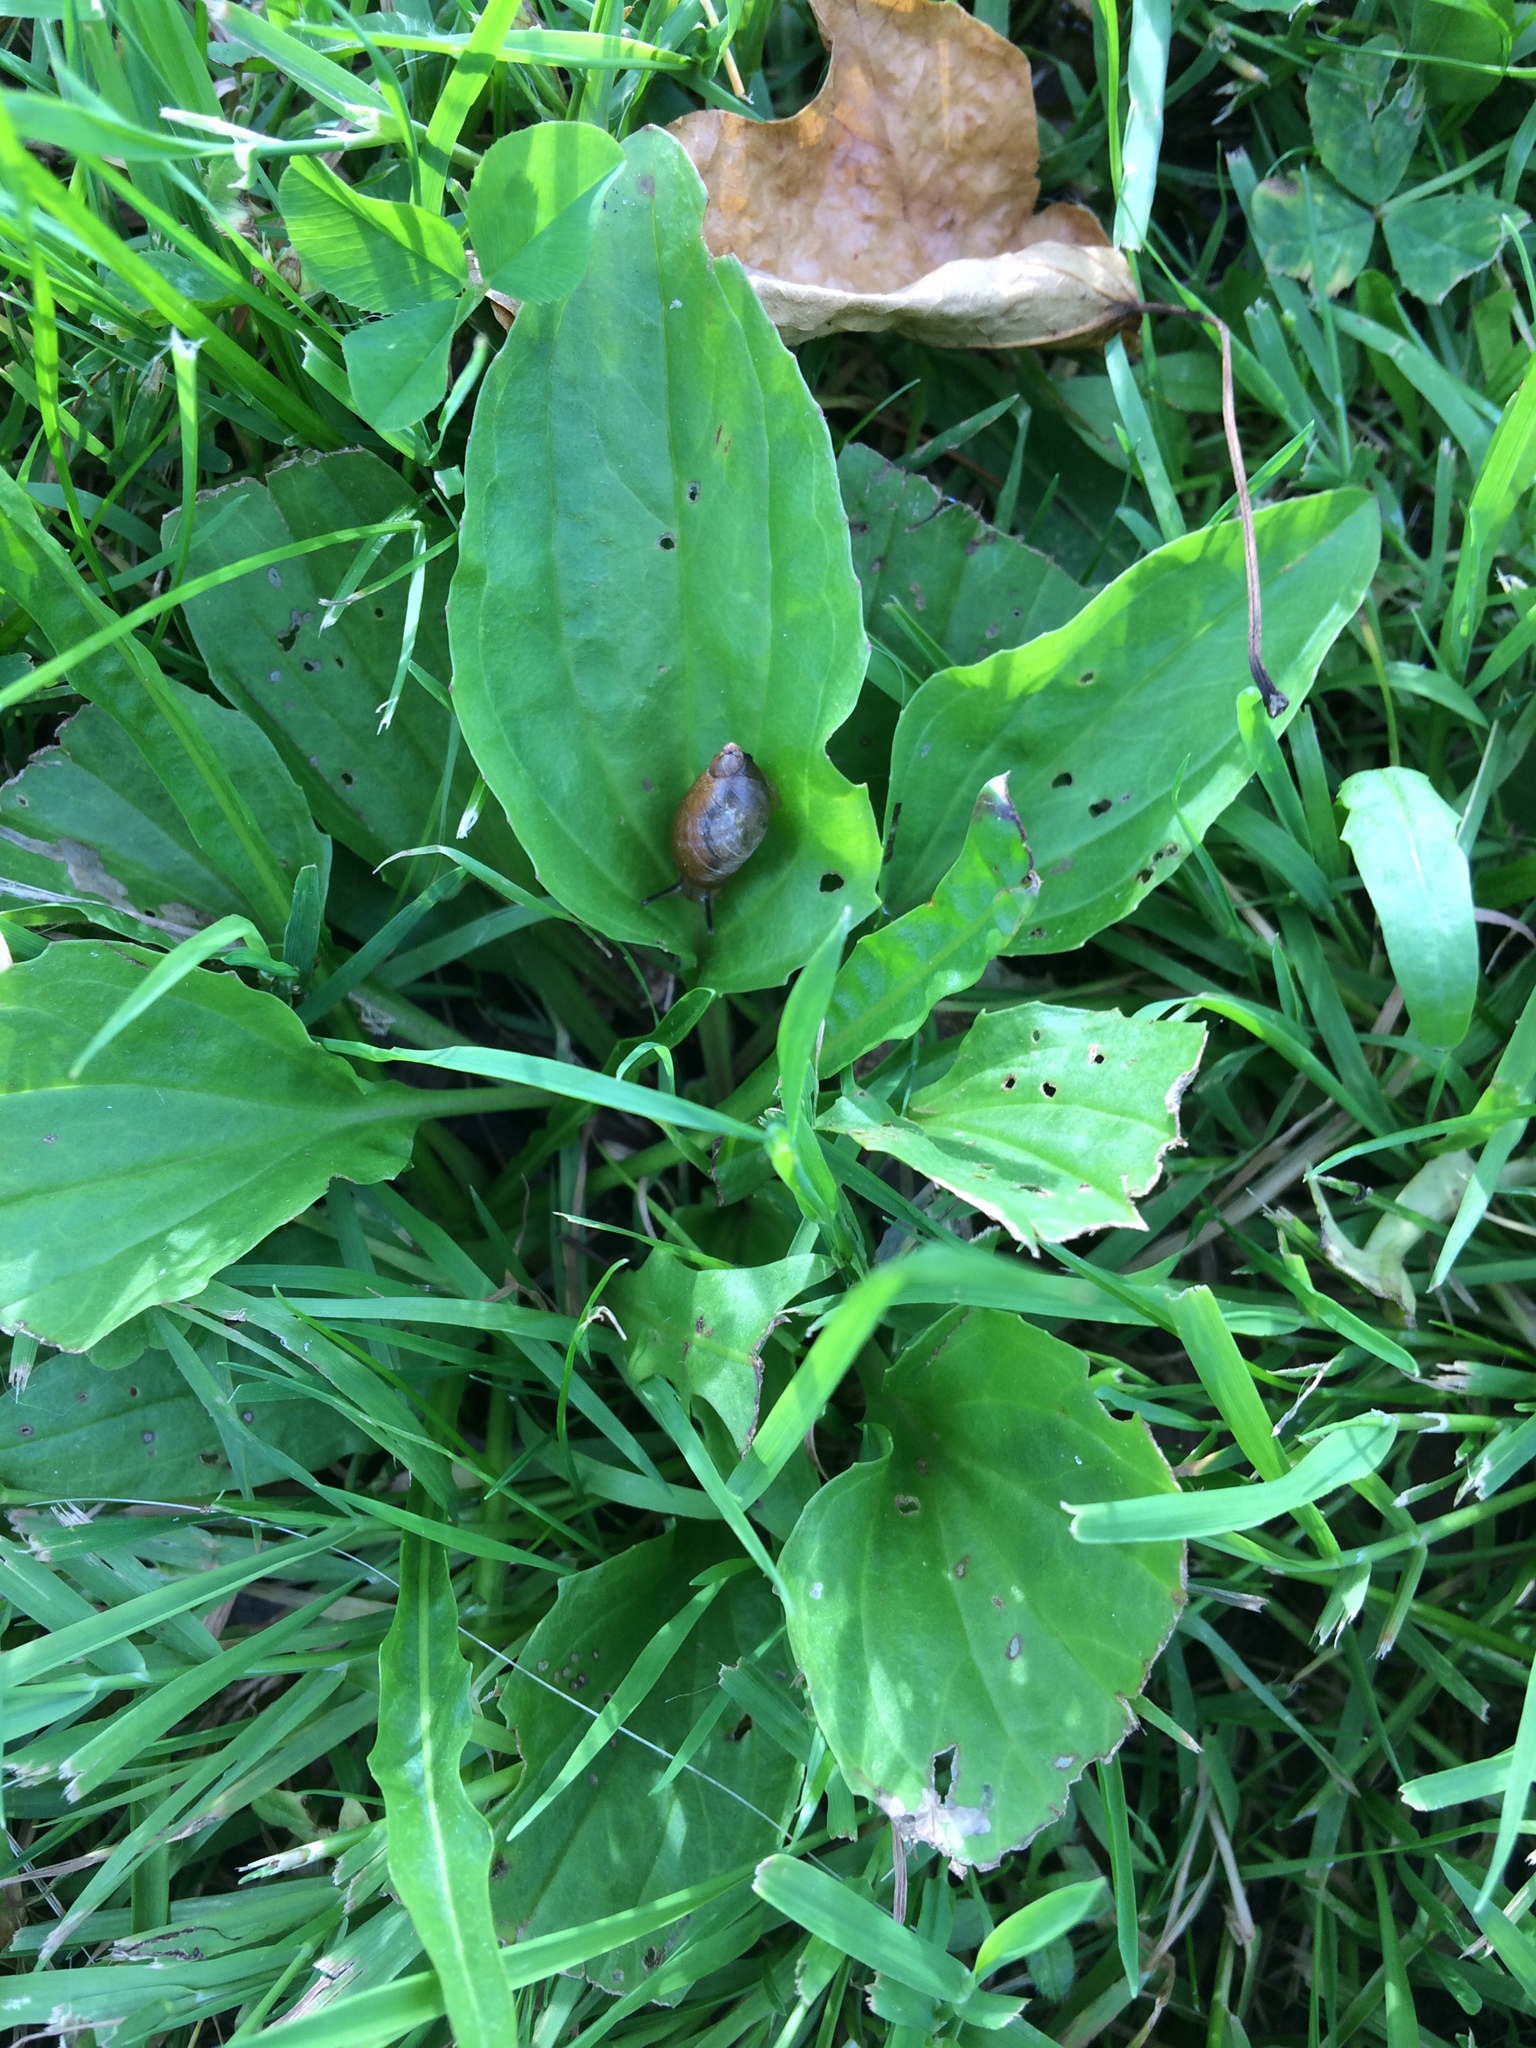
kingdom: Plantae
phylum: Tracheophyta
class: Magnoliopsida
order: Lamiales
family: Plantaginaceae
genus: Plantago
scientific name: Plantago major
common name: Common plantain
